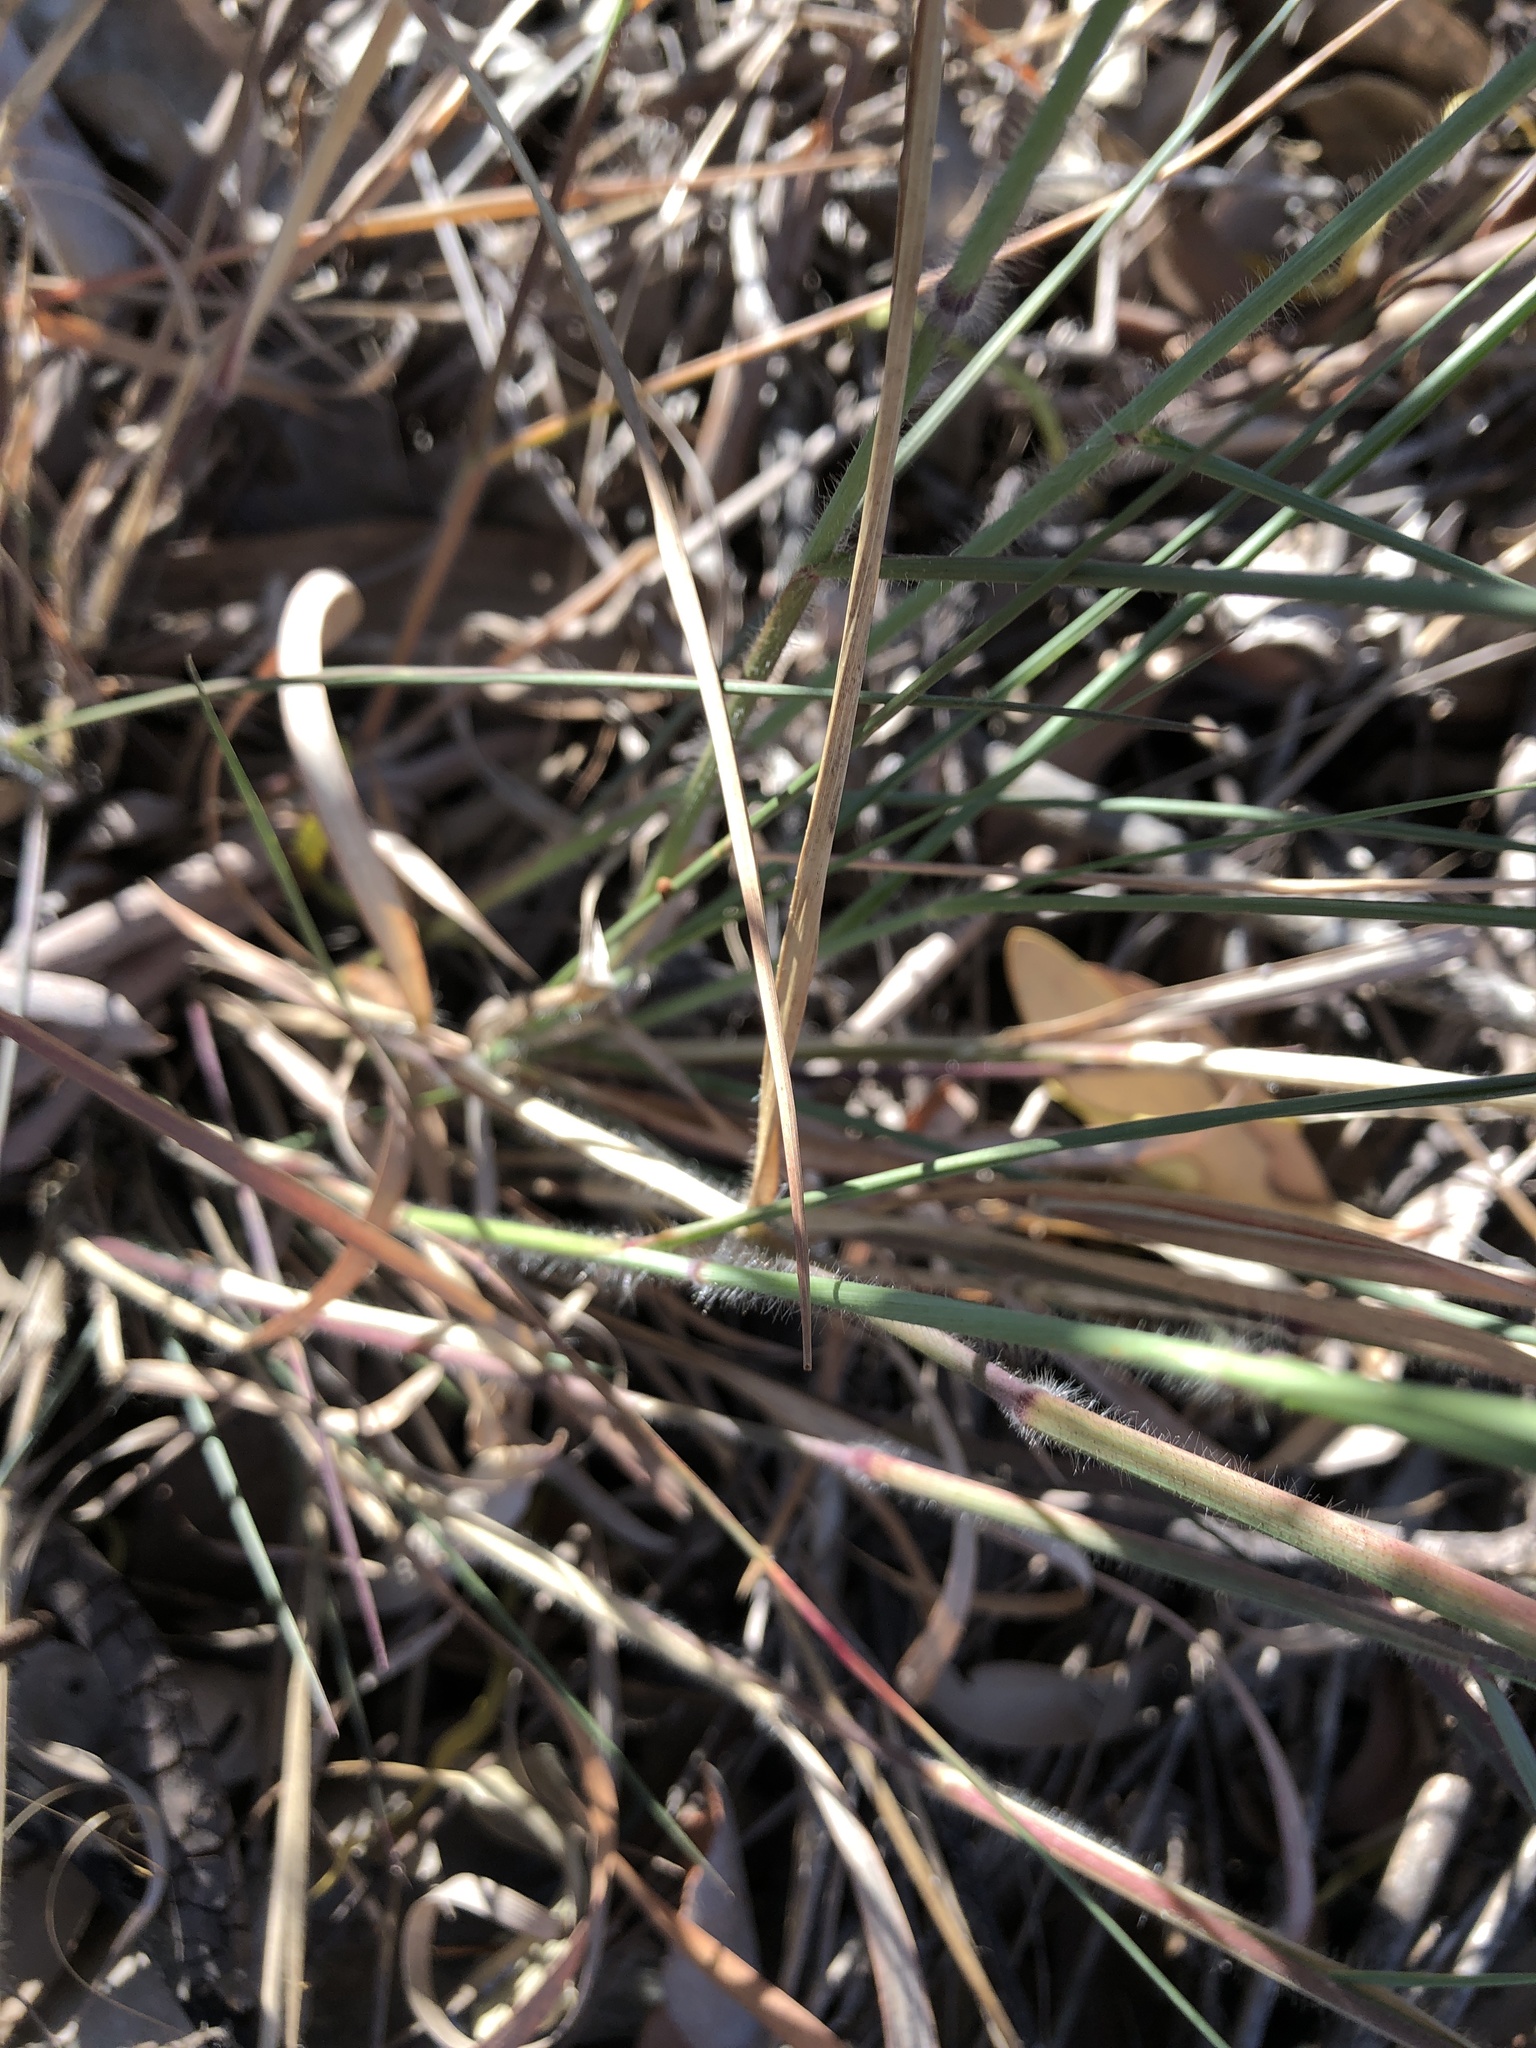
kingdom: Plantae
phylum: Tracheophyta
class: Liliopsida
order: Poales
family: Poaceae
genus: Melinis
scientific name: Melinis repens
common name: Rose natal grass
